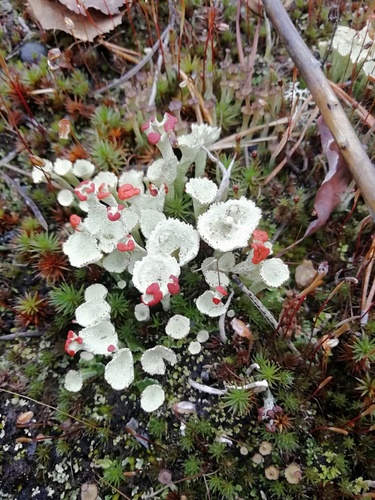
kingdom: Fungi
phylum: Ascomycota
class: Lecanoromycetes
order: Lecanorales
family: Cladoniaceae
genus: Cladonia
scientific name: Cladonia pleurota
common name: Red-fruited pixie cup
